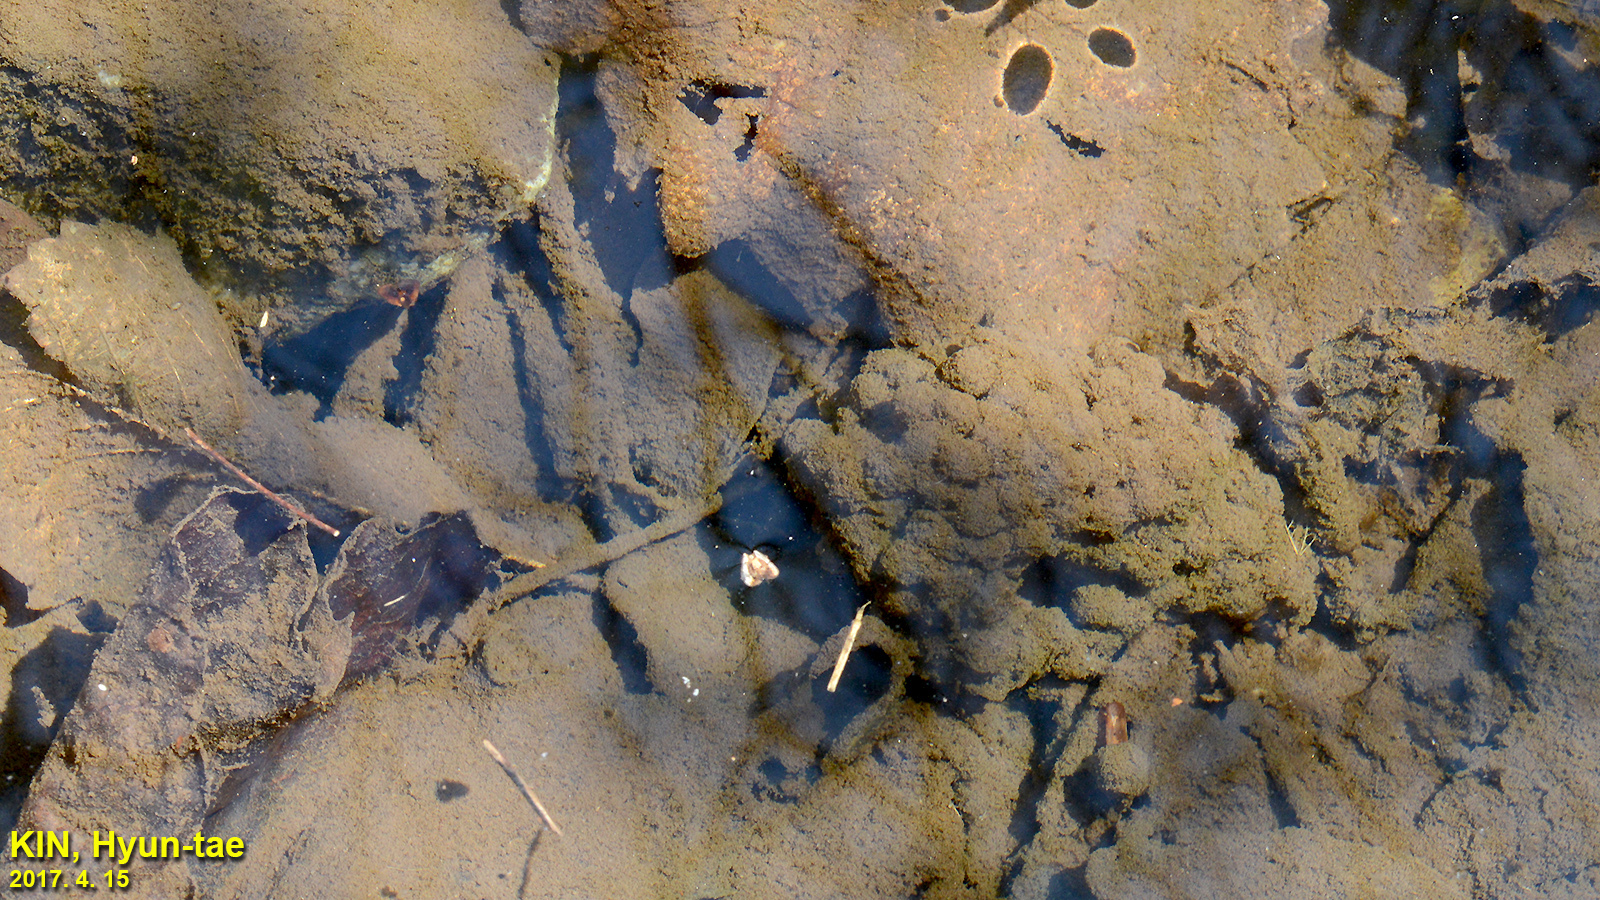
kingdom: Animalia
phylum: Chordata
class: Amphibia
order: Anura
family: Ranidae
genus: Rana
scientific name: Rana huanrenensis
